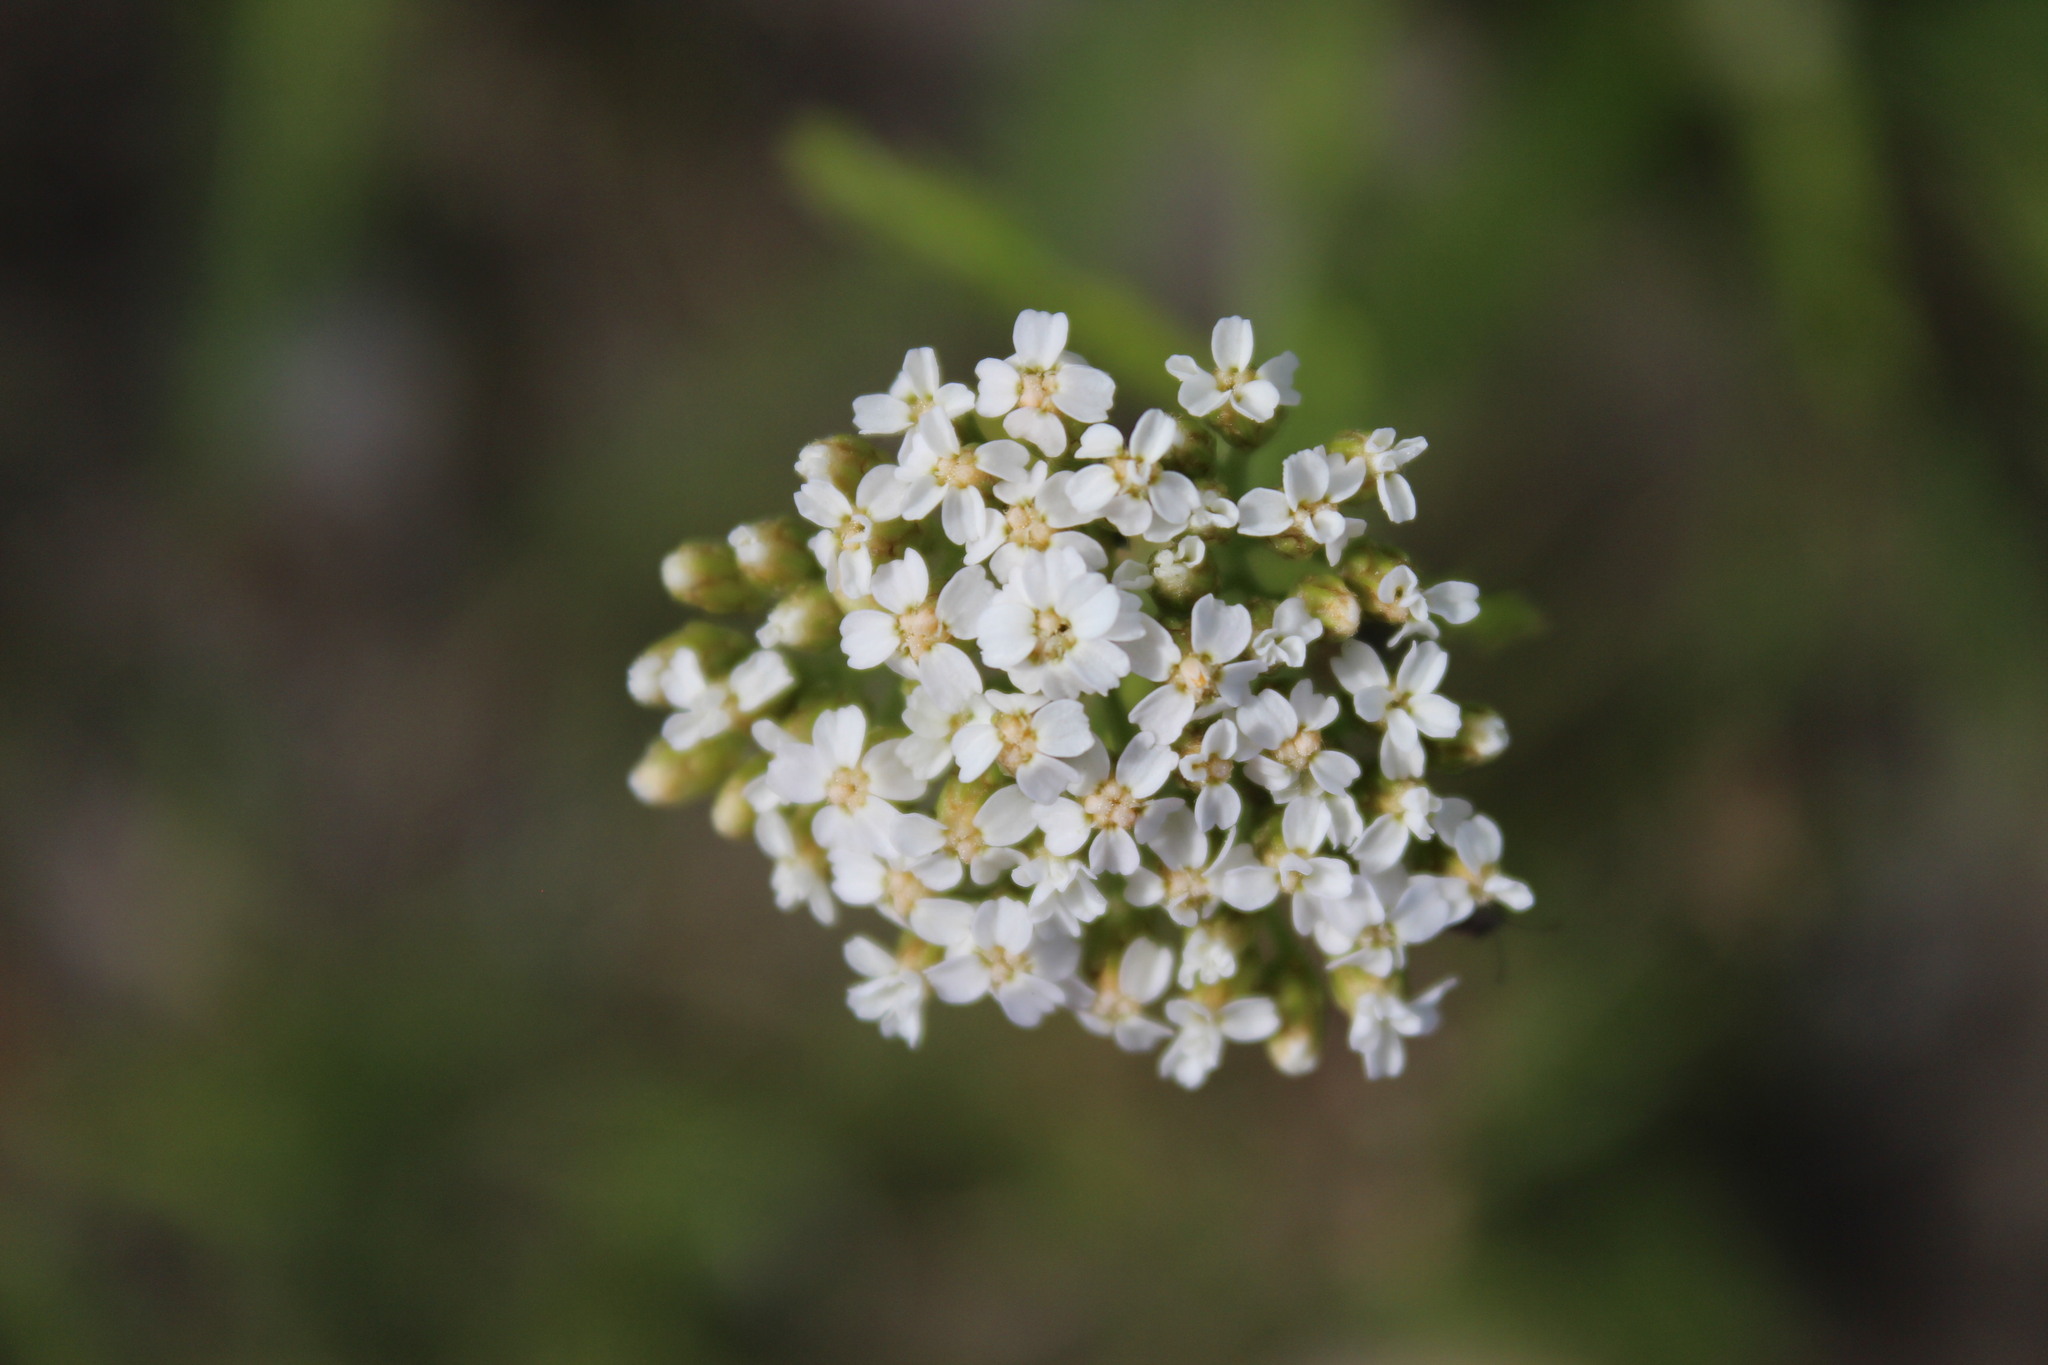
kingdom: Plantae
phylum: Tracheophyta
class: Magnoliopsida
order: Asterales
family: Asteraceae
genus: Achillea
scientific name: Achillea millefolium
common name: Yarrow
